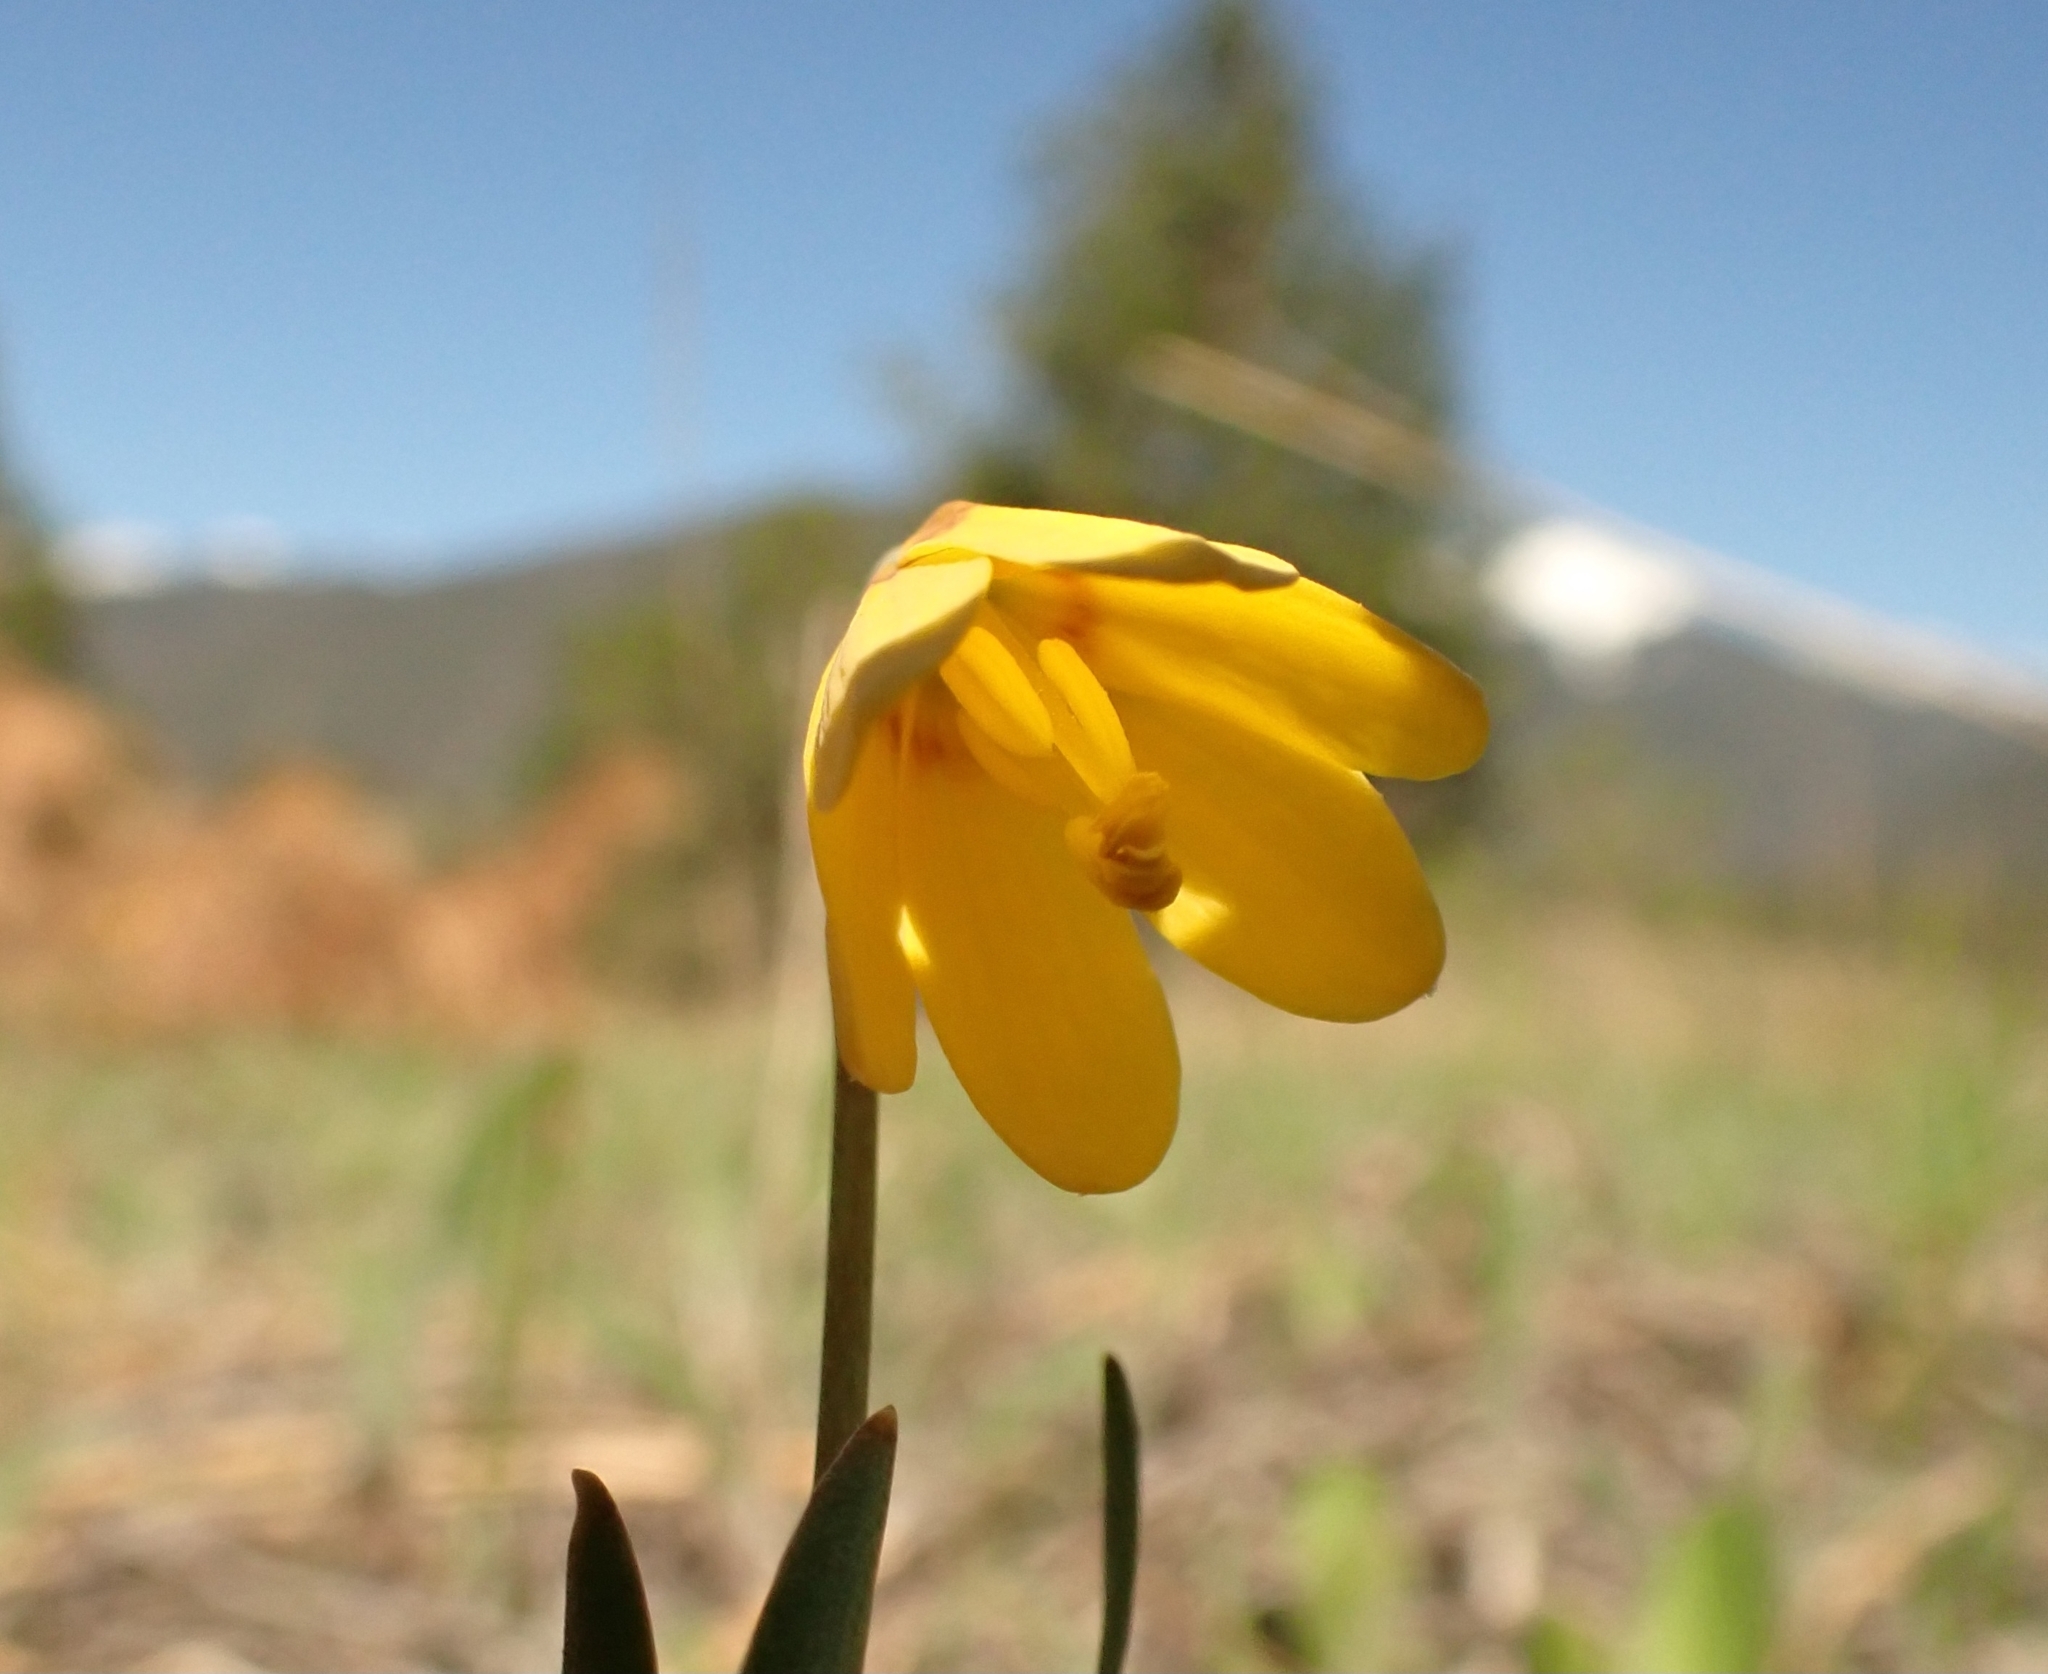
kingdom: Plantae
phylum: Tracheophyta
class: Liliopsida
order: Liliales
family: Liliaceae
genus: Fritillaria
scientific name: Fritillaria pudica
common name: Yellow fritillary
